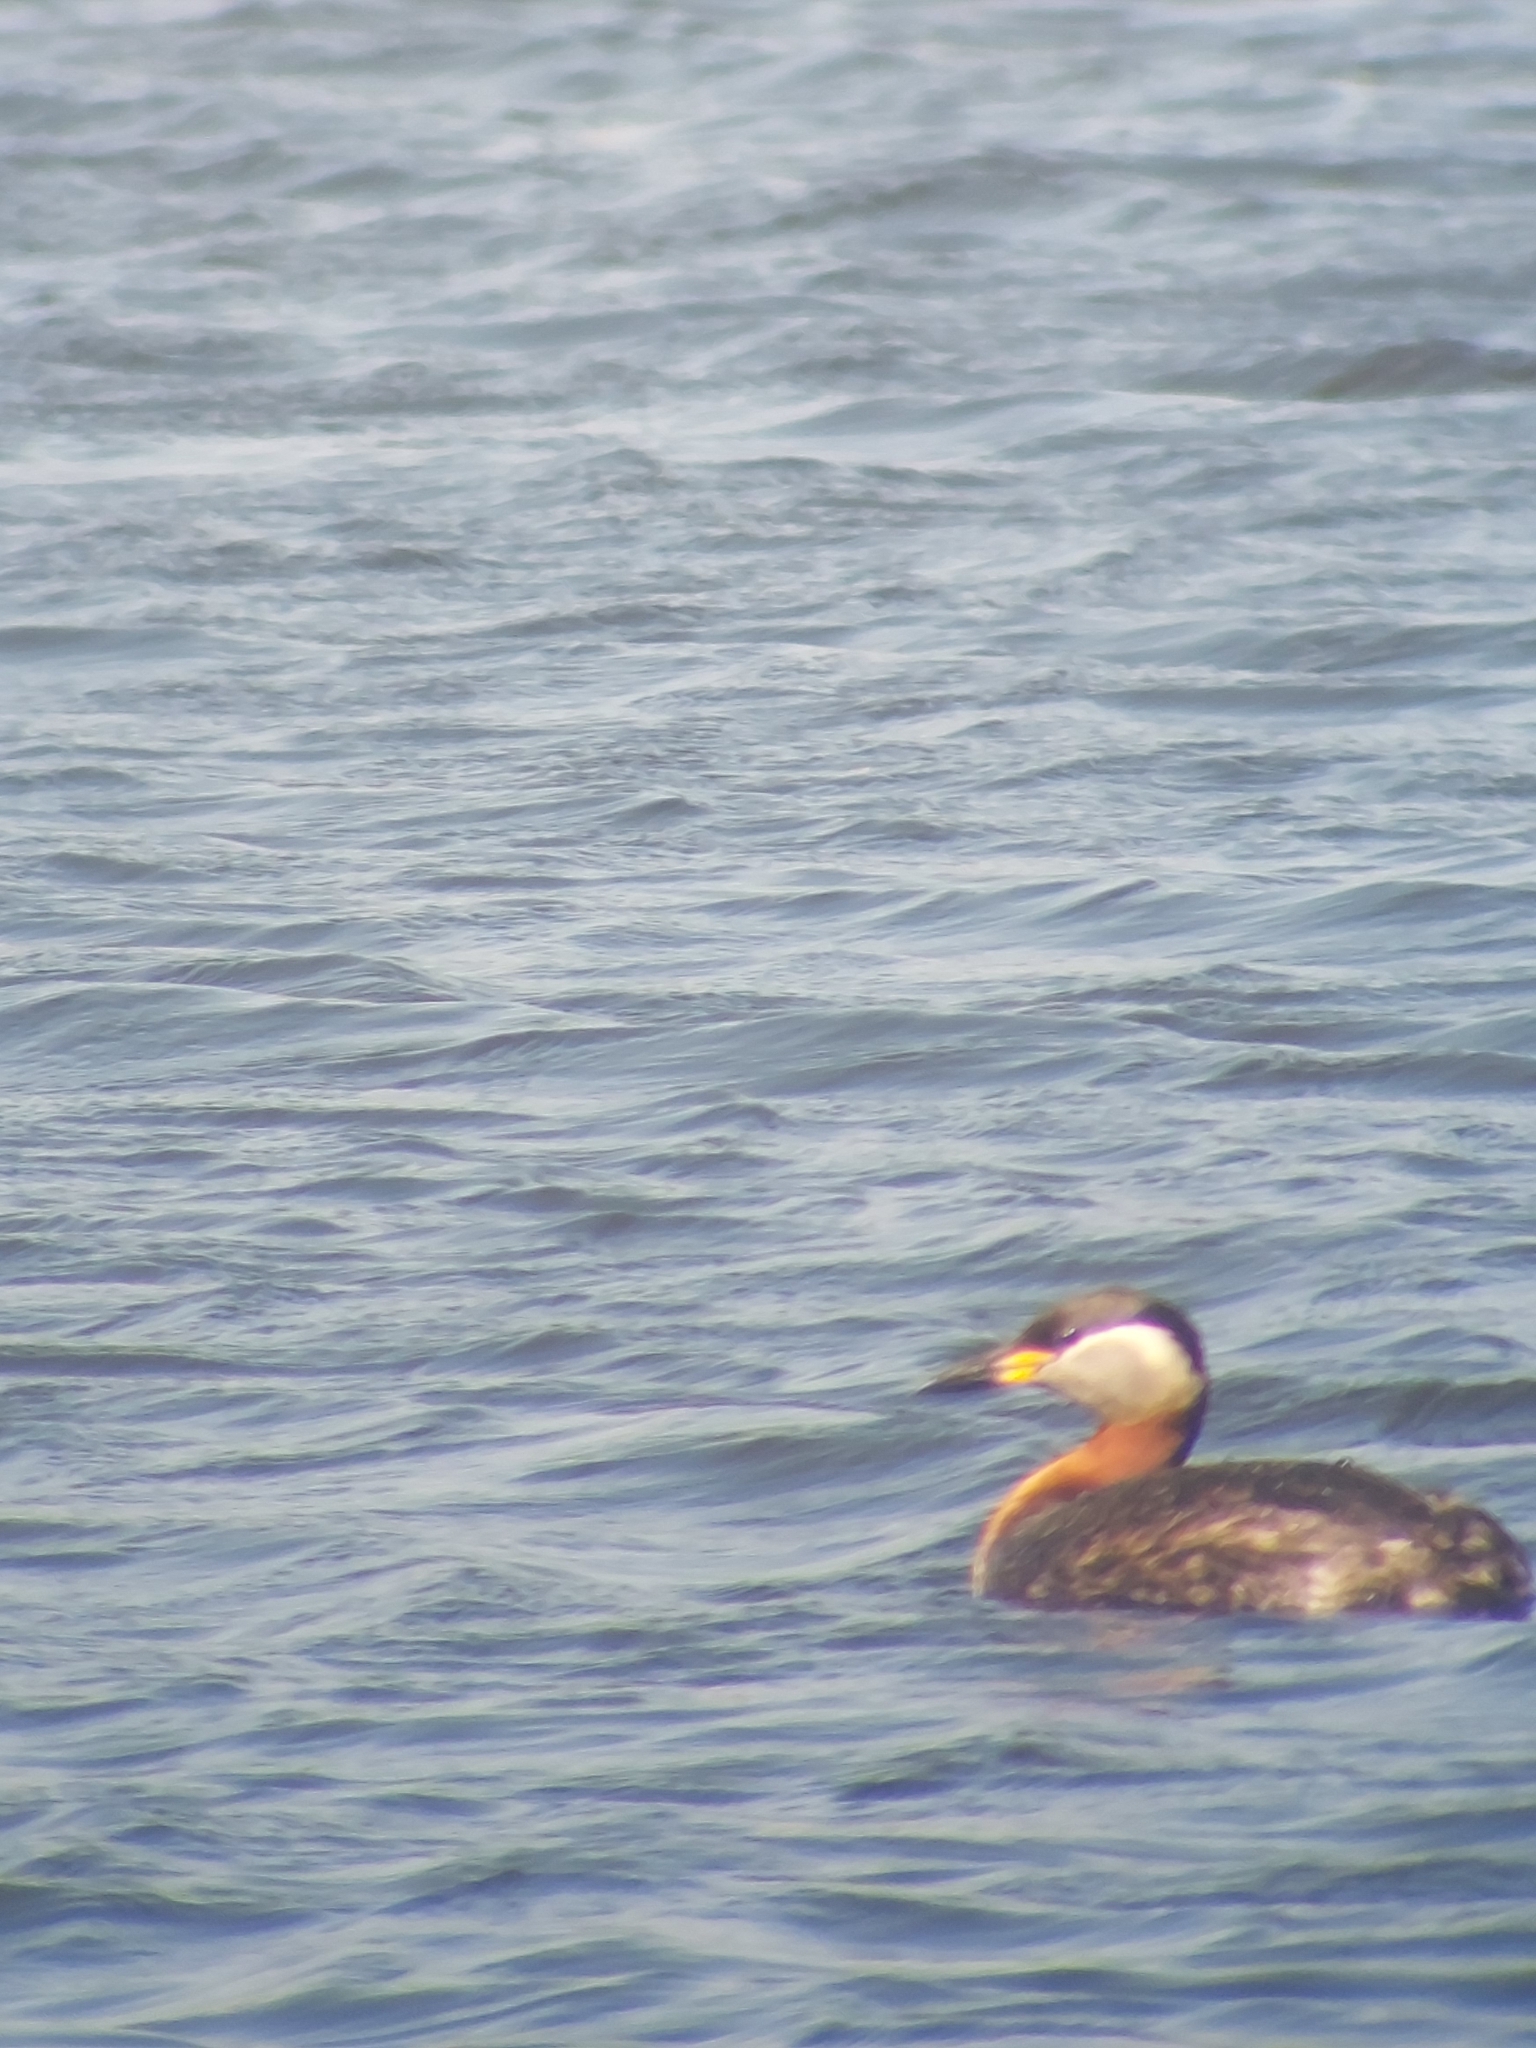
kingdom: Animalia
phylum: Chordata
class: Aves
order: Podicipediformes
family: Podicipedidae
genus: Podiceps
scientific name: Podiceps grisegena
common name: Red-necked grebe
